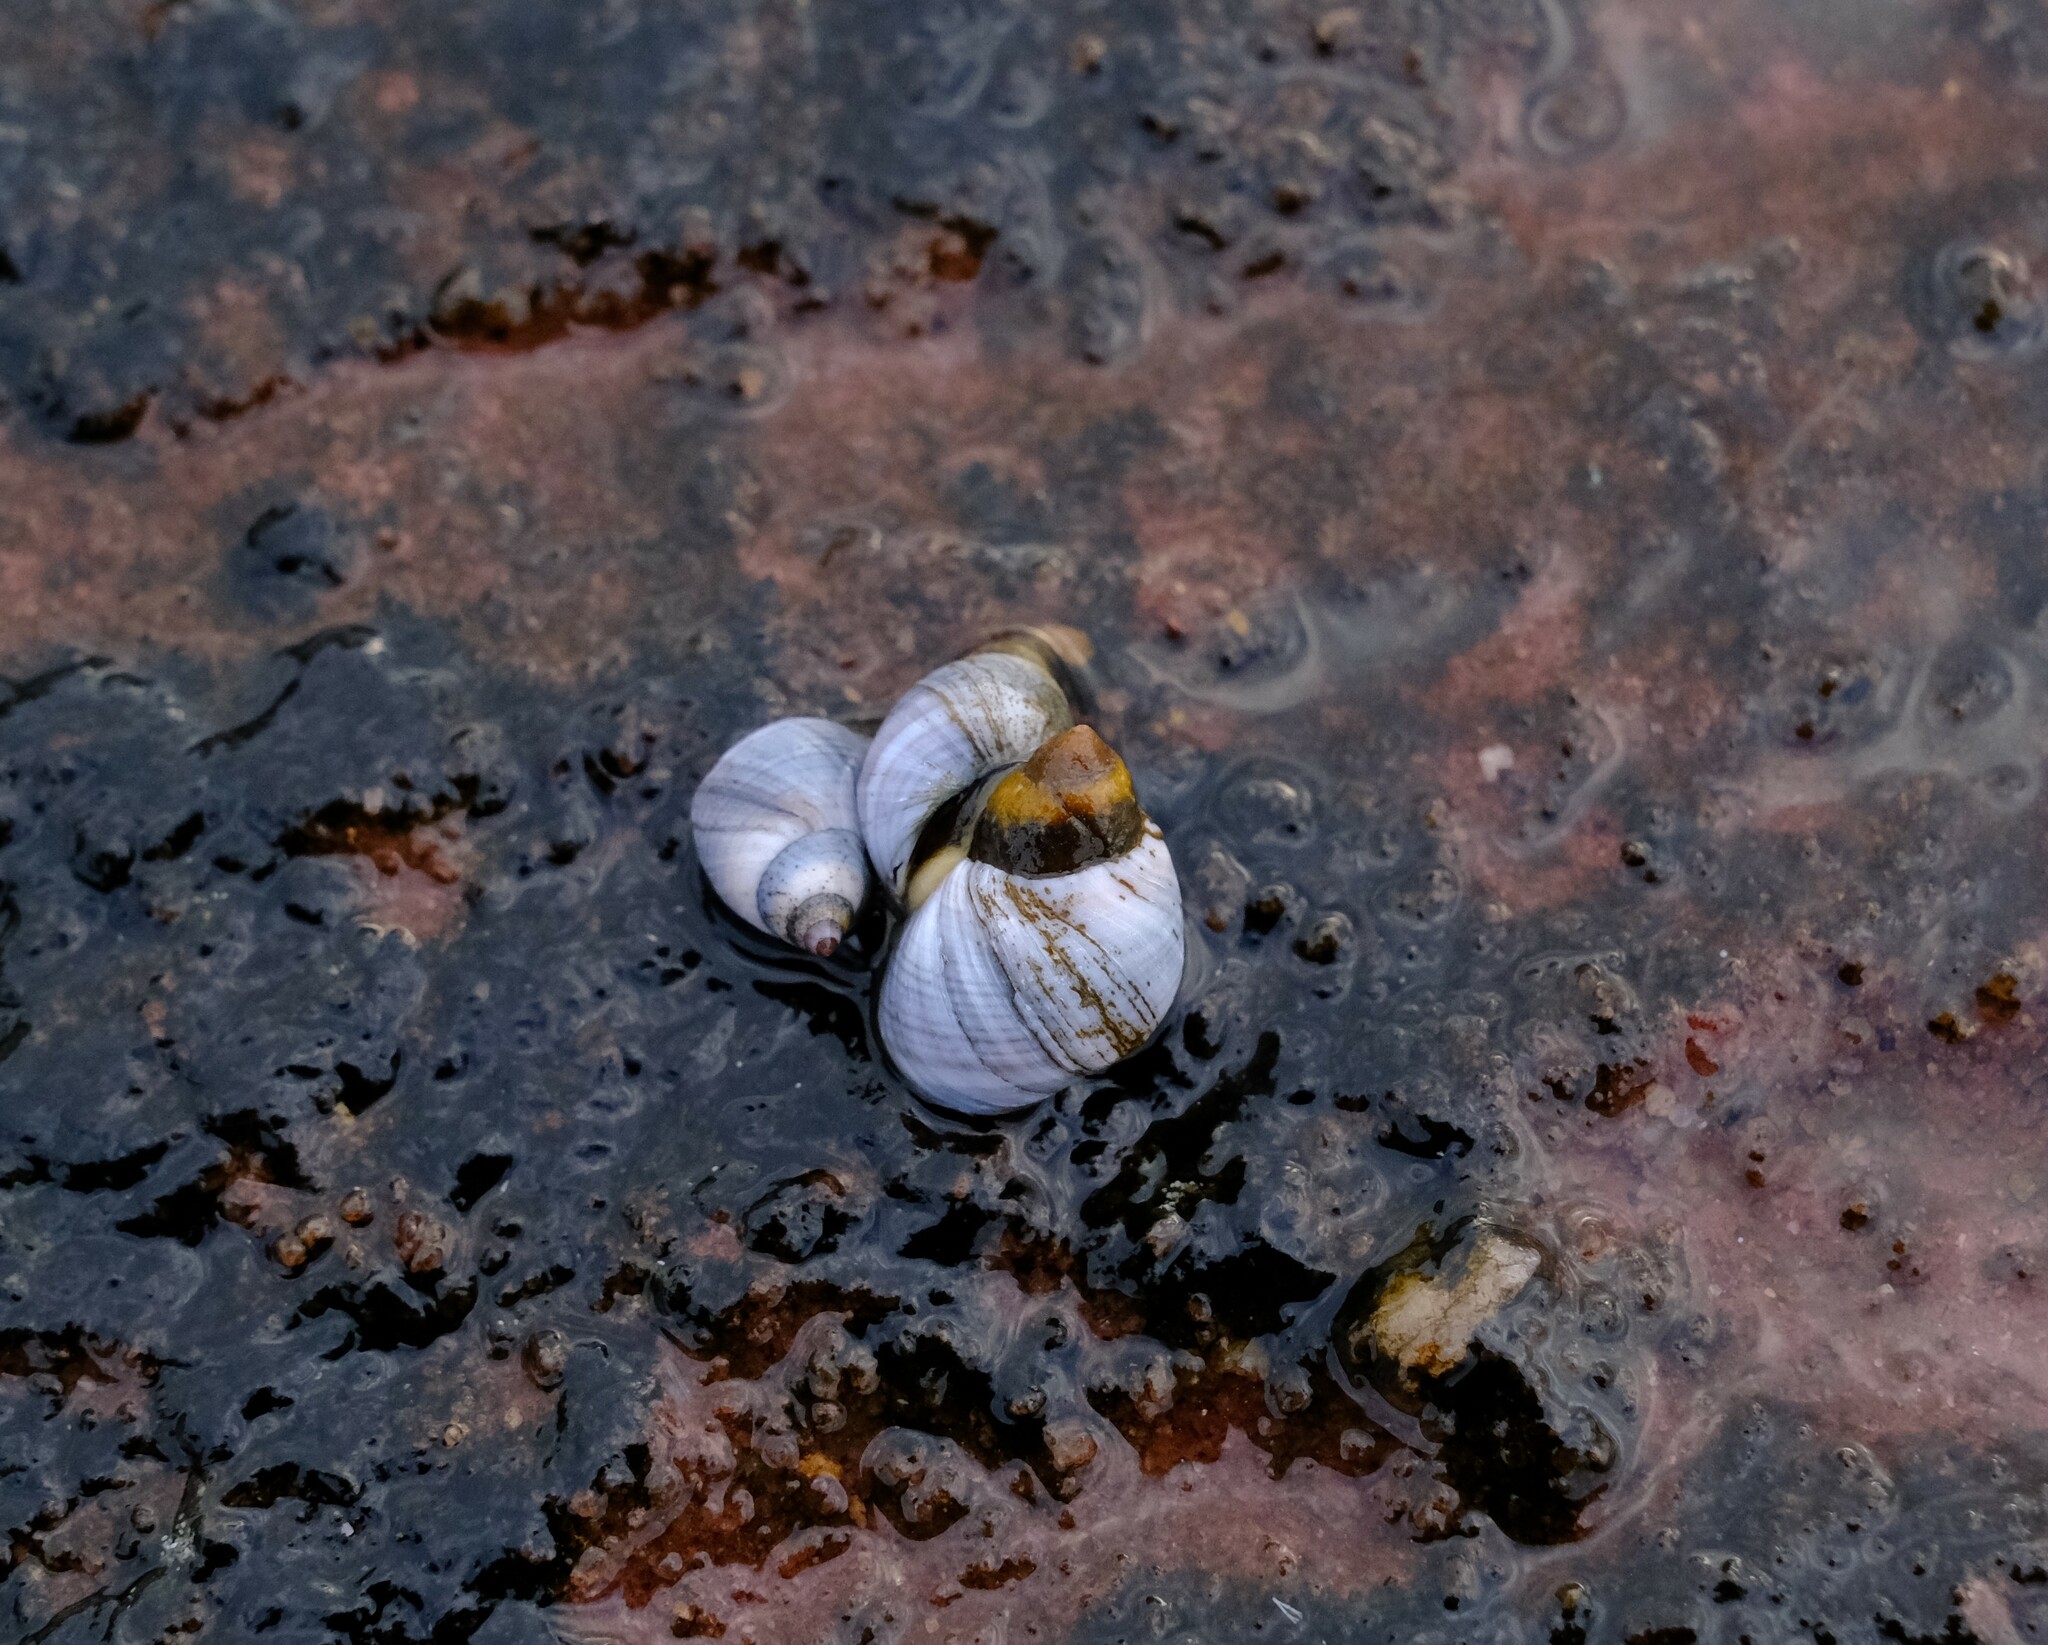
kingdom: Animalia
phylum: Mollusca
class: Gastropoda
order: Littorinimorpha
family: Littorinidae
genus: Austrolittorina
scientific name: Austrolittorina unifasciata
